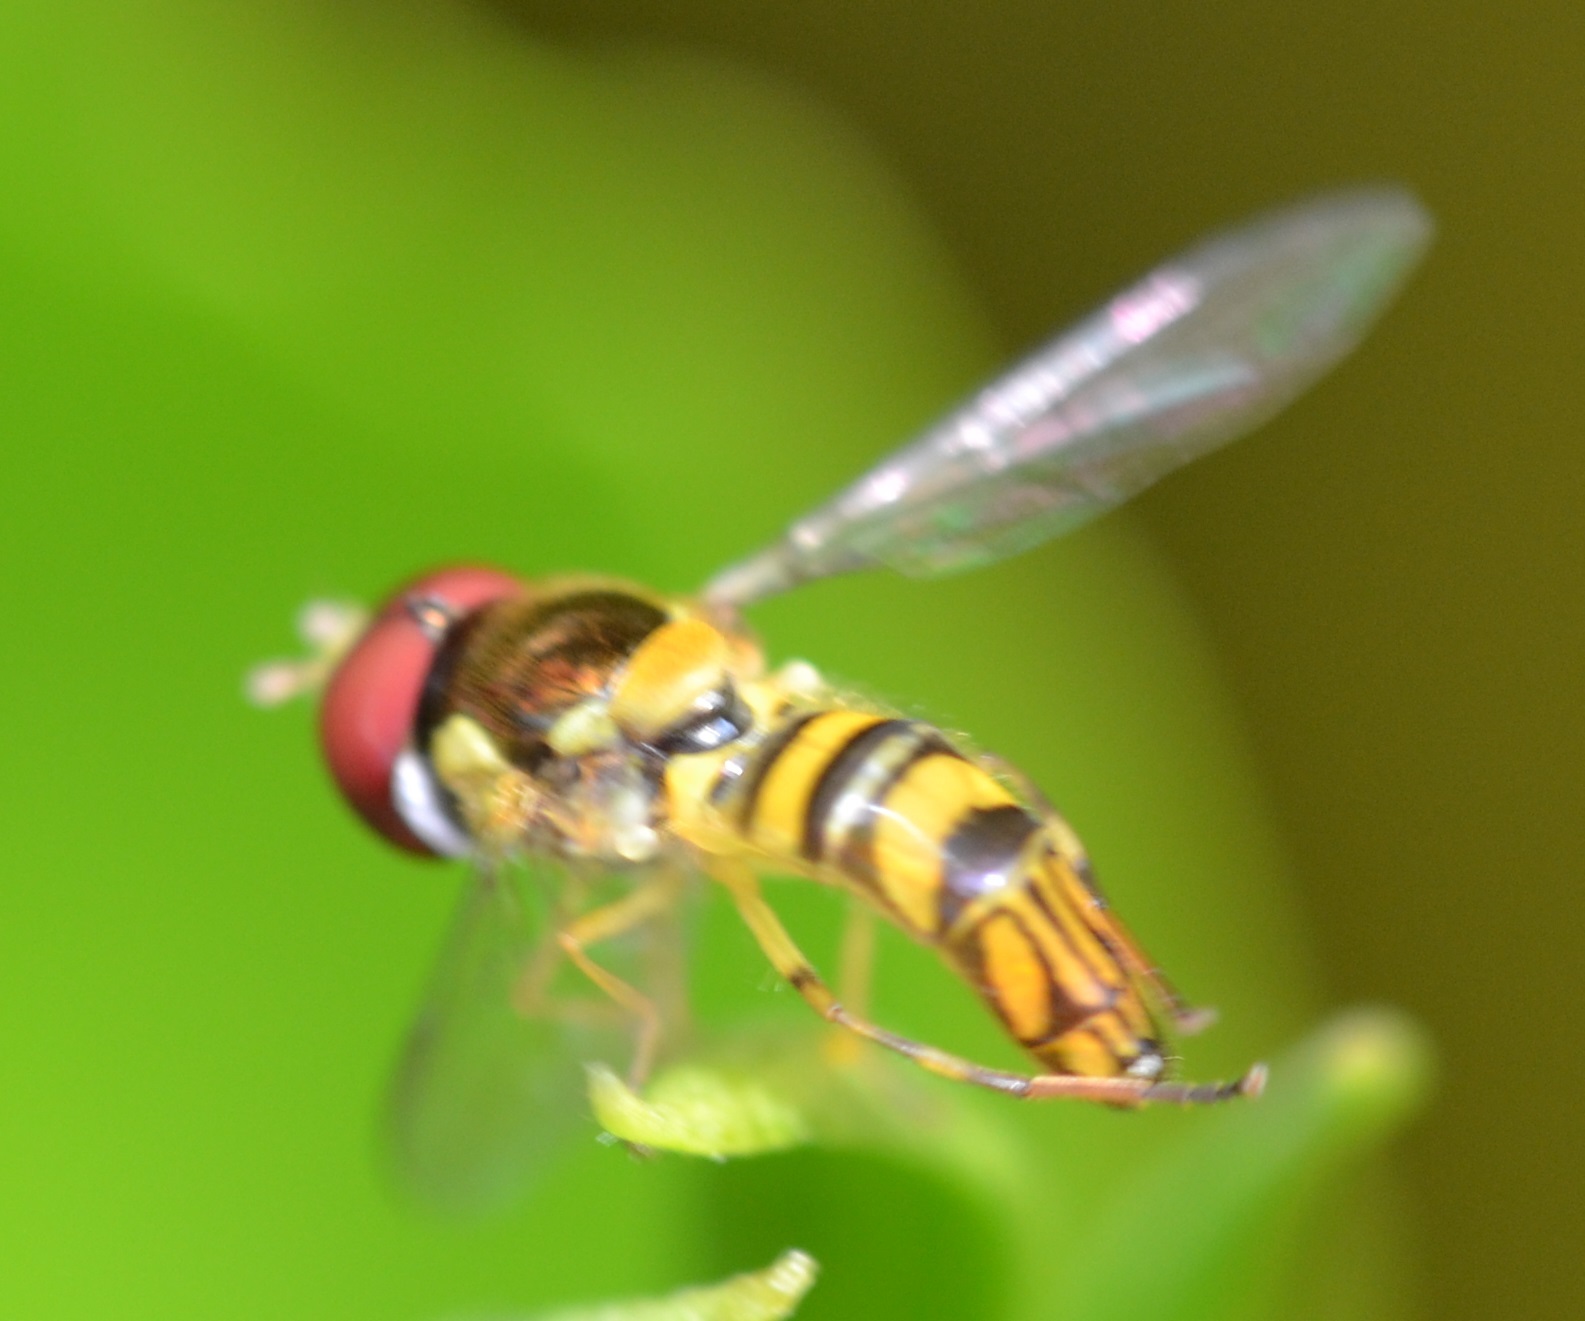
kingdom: Animalia
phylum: Arthropoda
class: Insecta
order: Diptera
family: Syrphidae
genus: Allograpta
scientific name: Allograpta obliqua
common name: Common oblique syrphid
